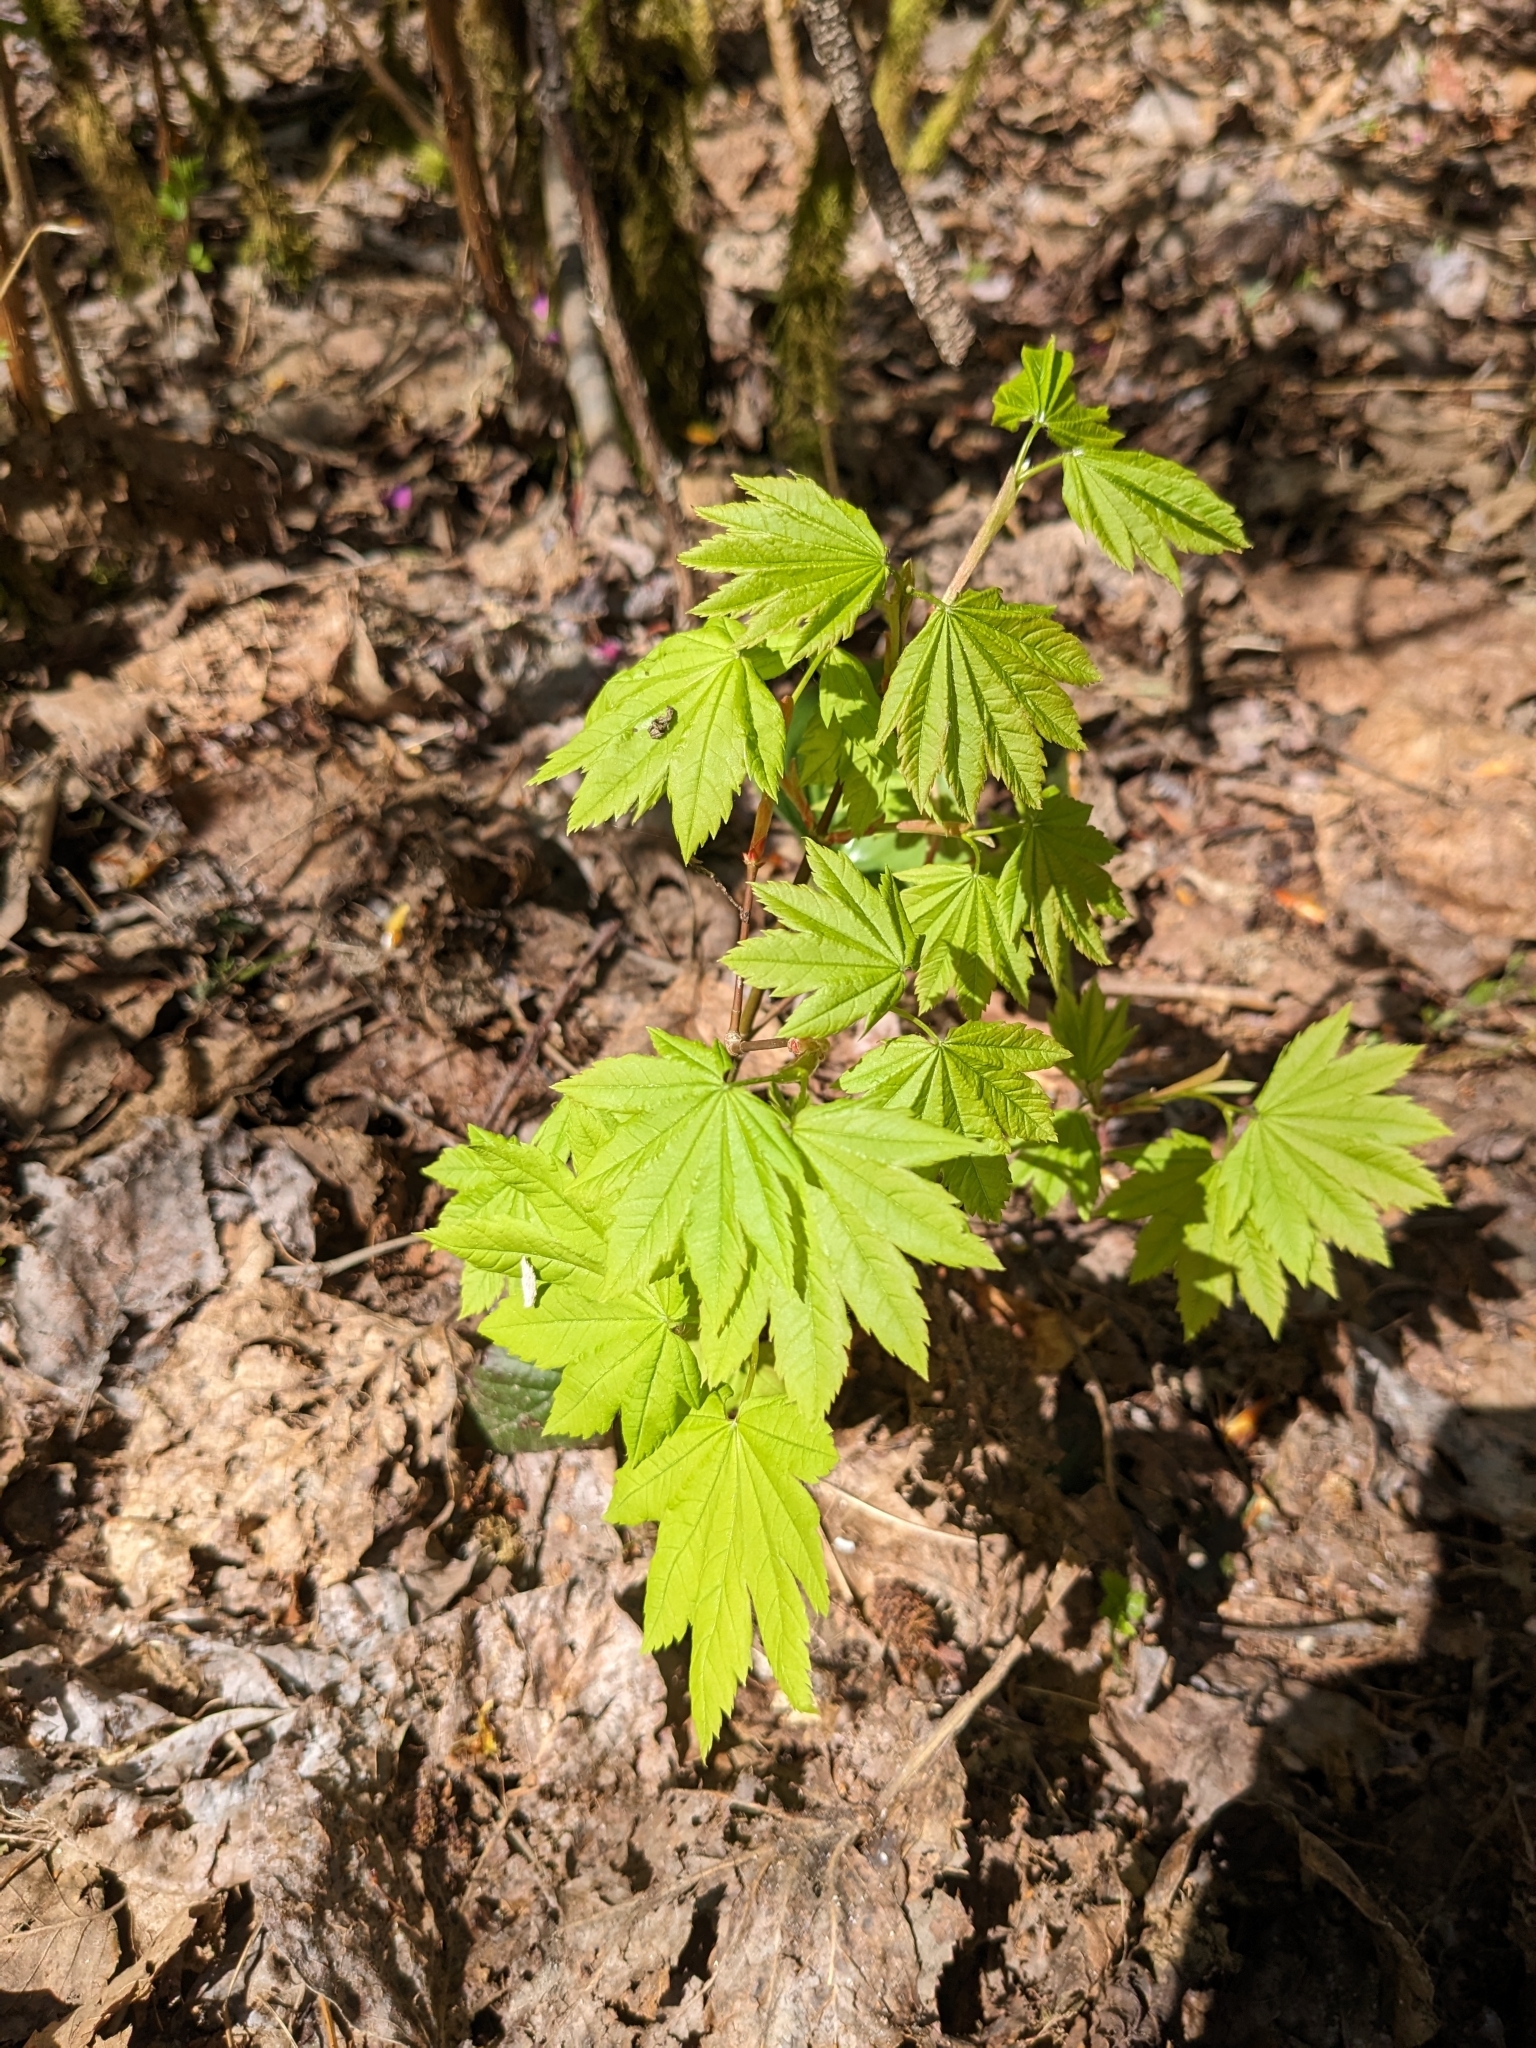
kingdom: Plantae
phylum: Tracheophyta
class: Magnoliopsida
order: Sapindales
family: Sapindaceae
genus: Acer
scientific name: Acer circinatum
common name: Vine maple
